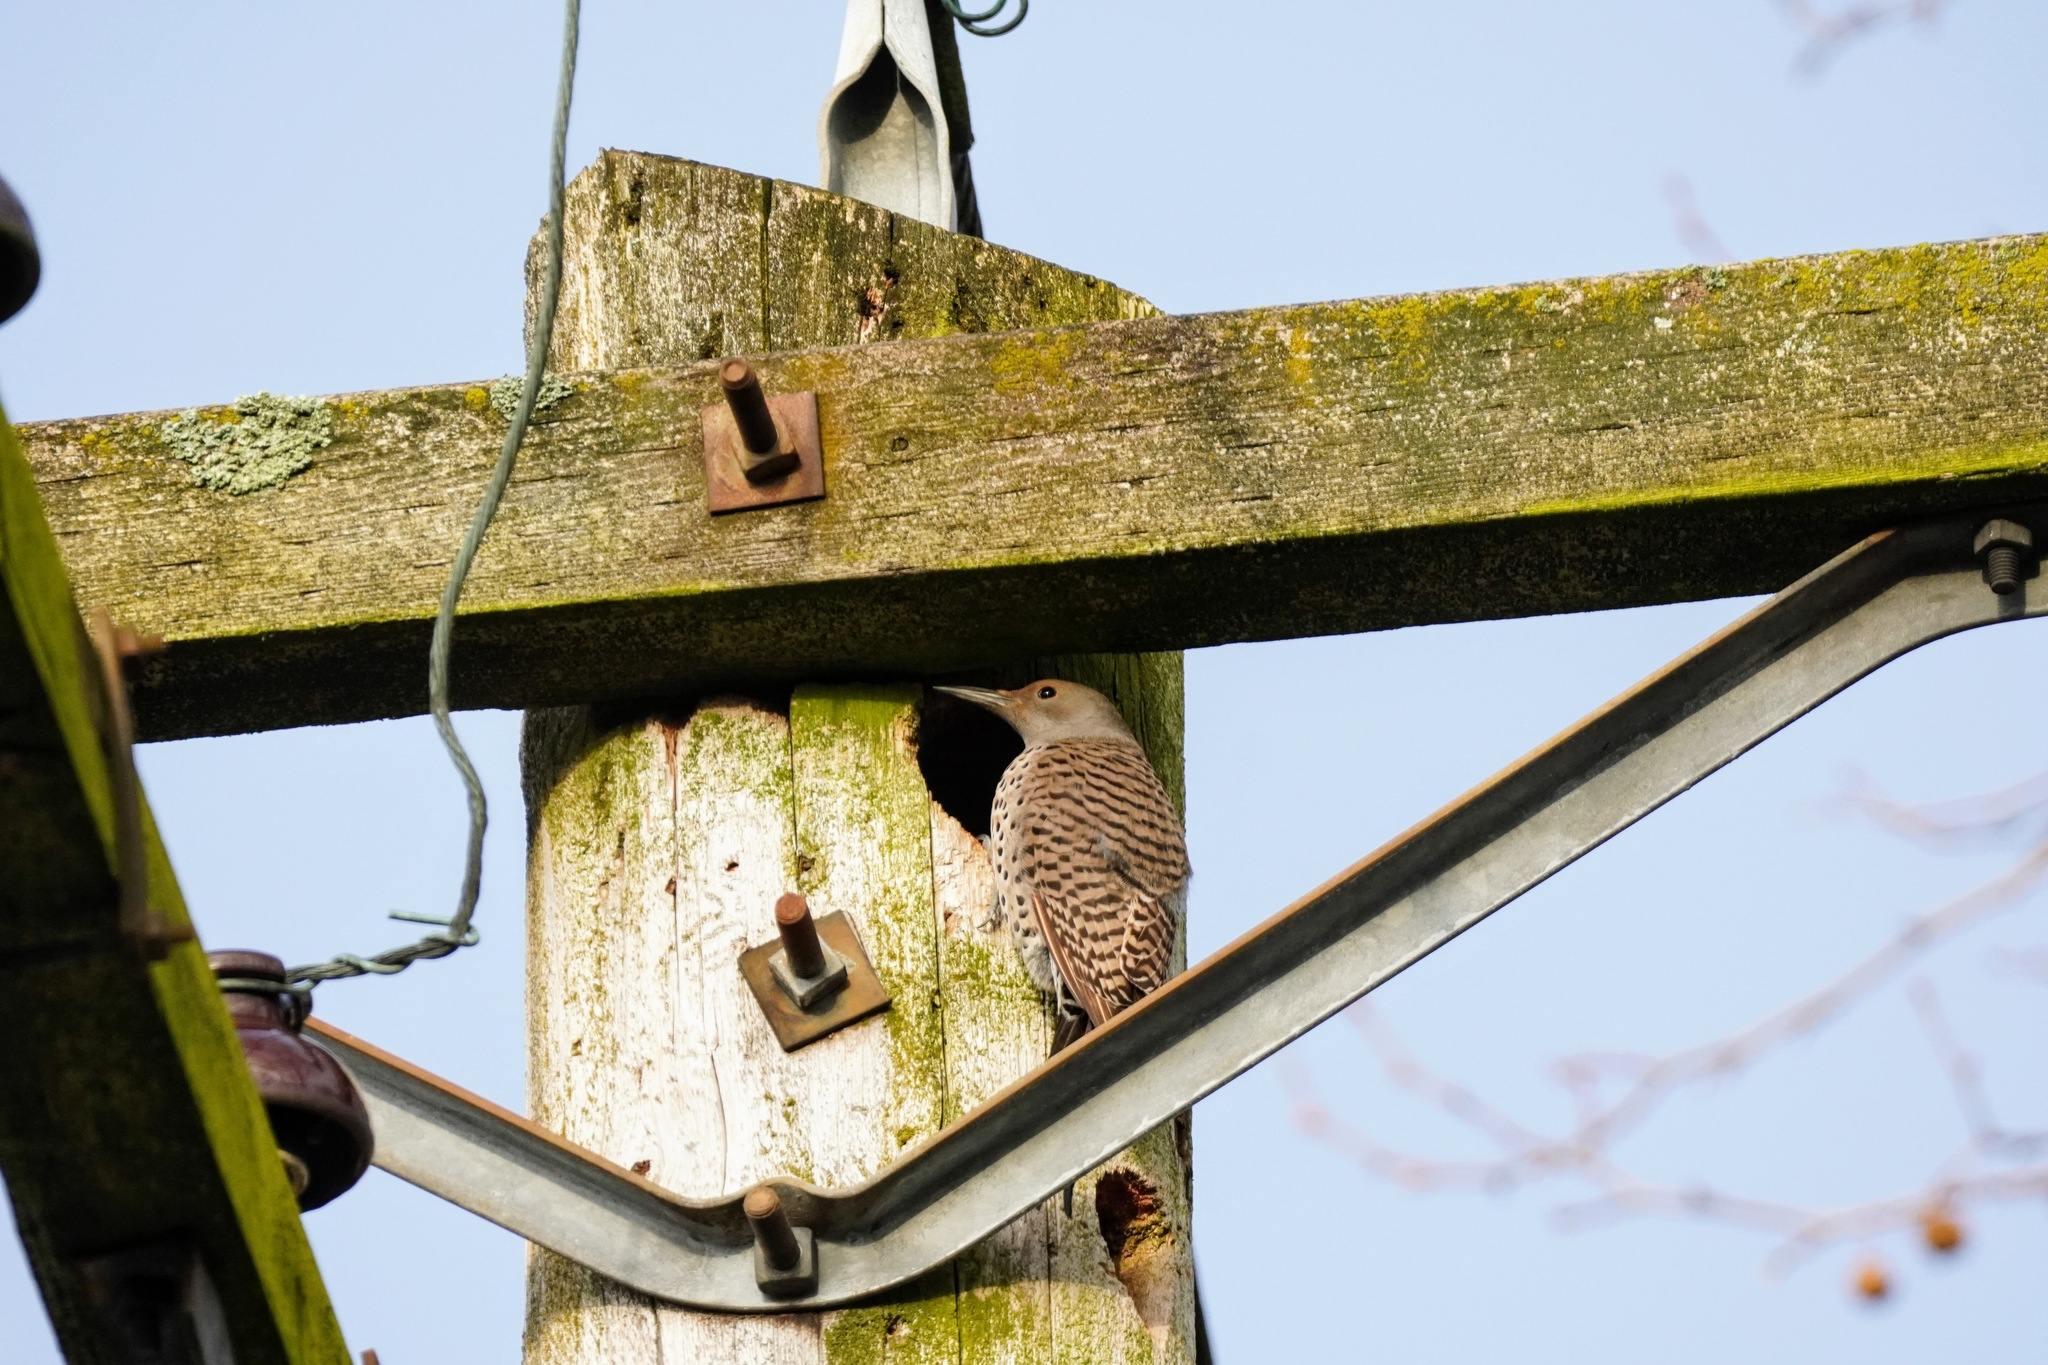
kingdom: Animalia
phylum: Chordata
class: Aves
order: Piciformes
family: Picidae
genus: Colaptes
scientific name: Colaptes auratus
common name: Northern flicker
